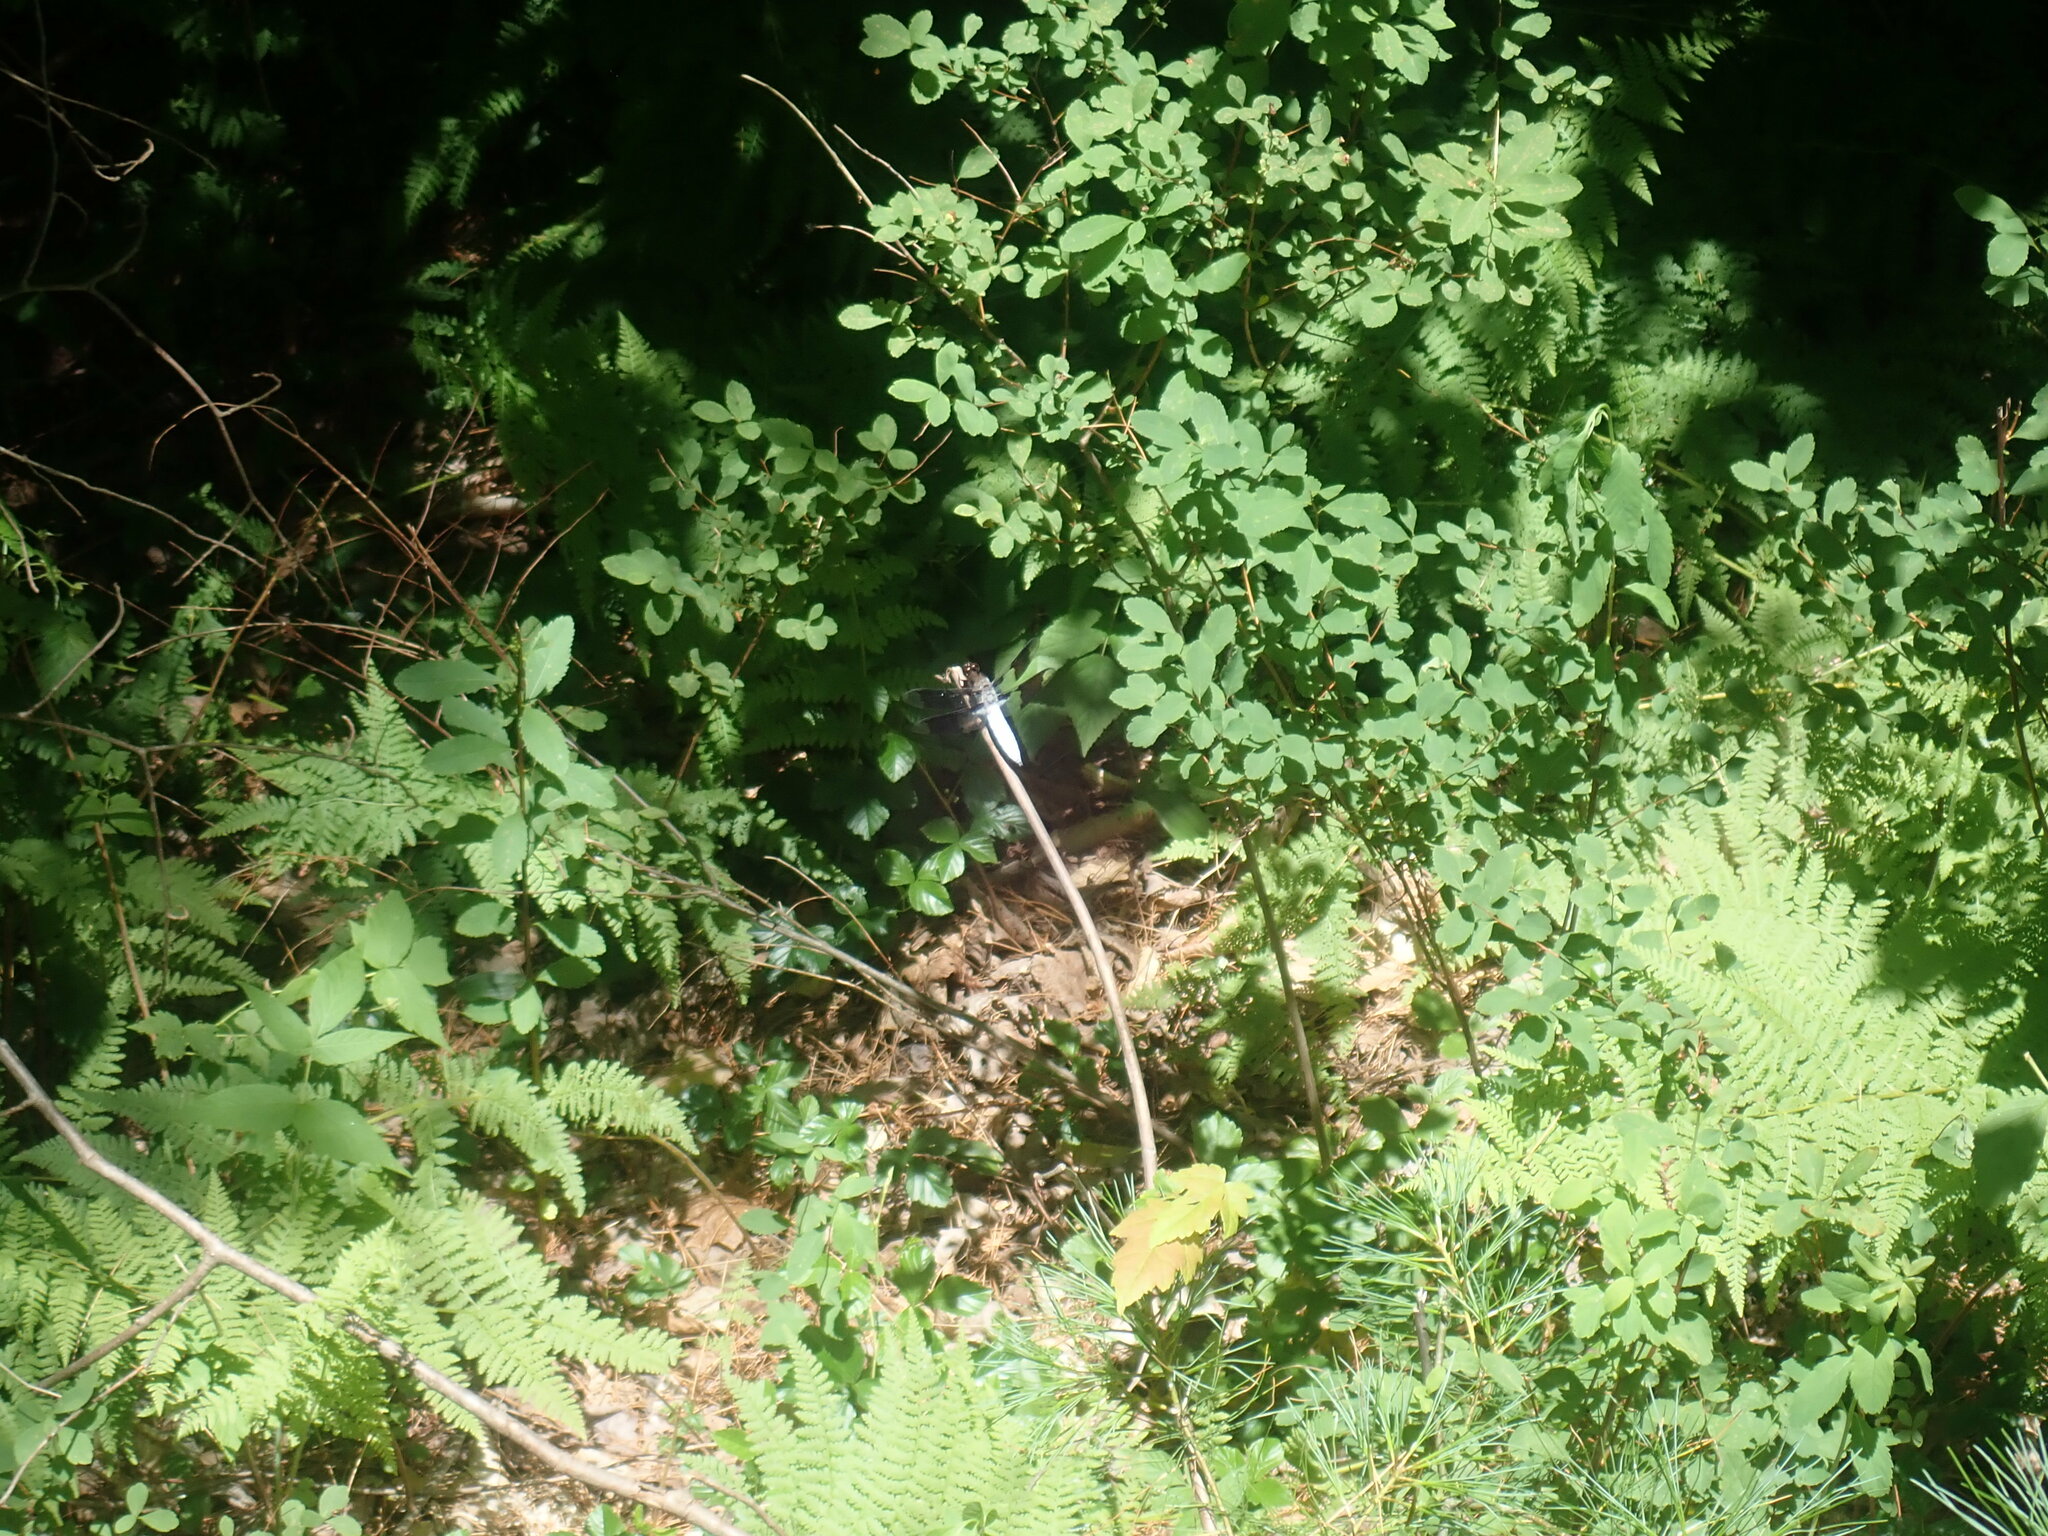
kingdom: Animalia
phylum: Arthropoda
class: Insecta
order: Odonata
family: Libellulidae
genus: Plathemis
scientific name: Plathemis lydia
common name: Common whitetail
